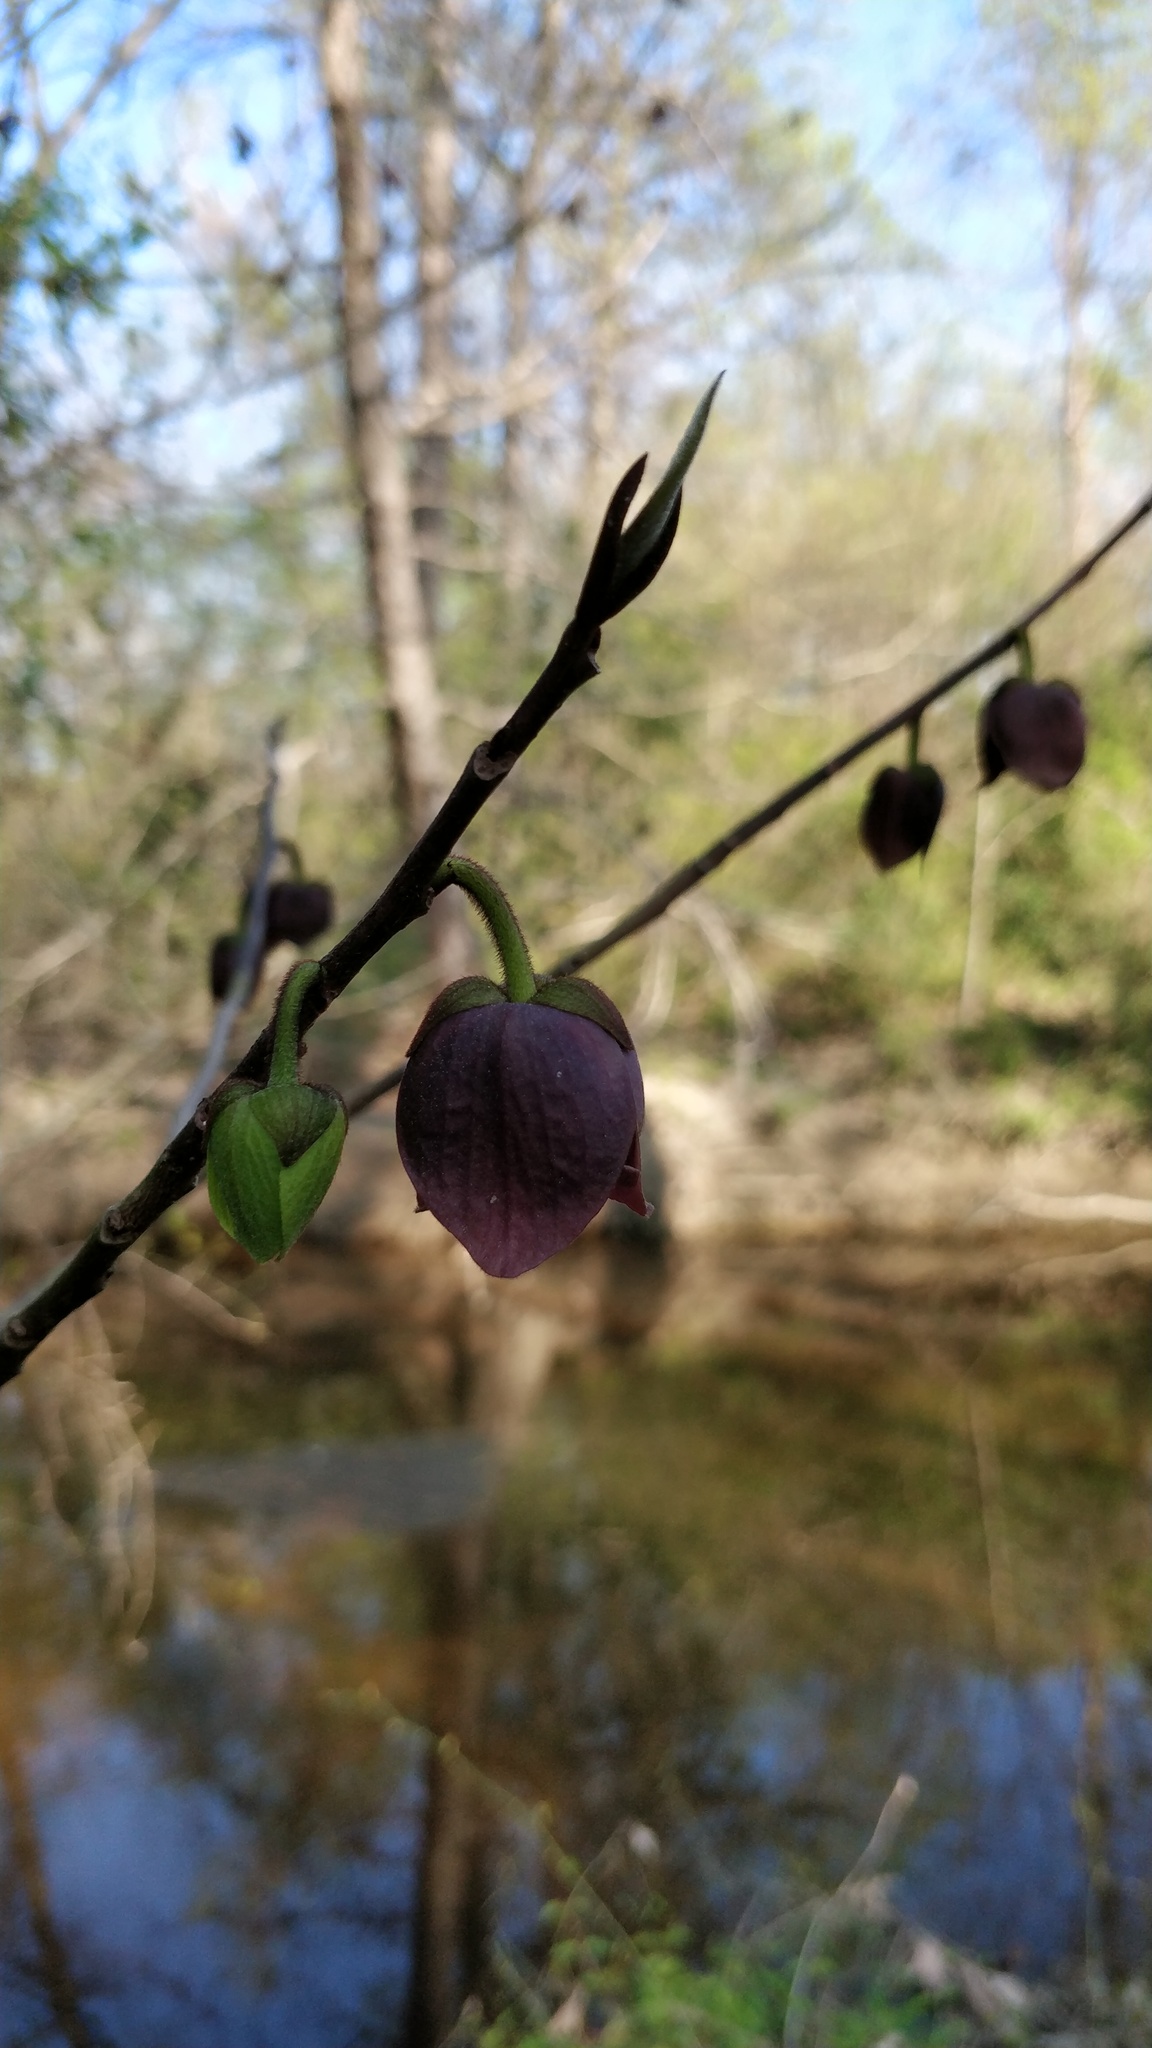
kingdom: Plantae
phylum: Tracheophyta
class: Magnoliopsida
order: Magnoliales
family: Annonaceae
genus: Asimina
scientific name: Asimina triloba
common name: Dog-banana
